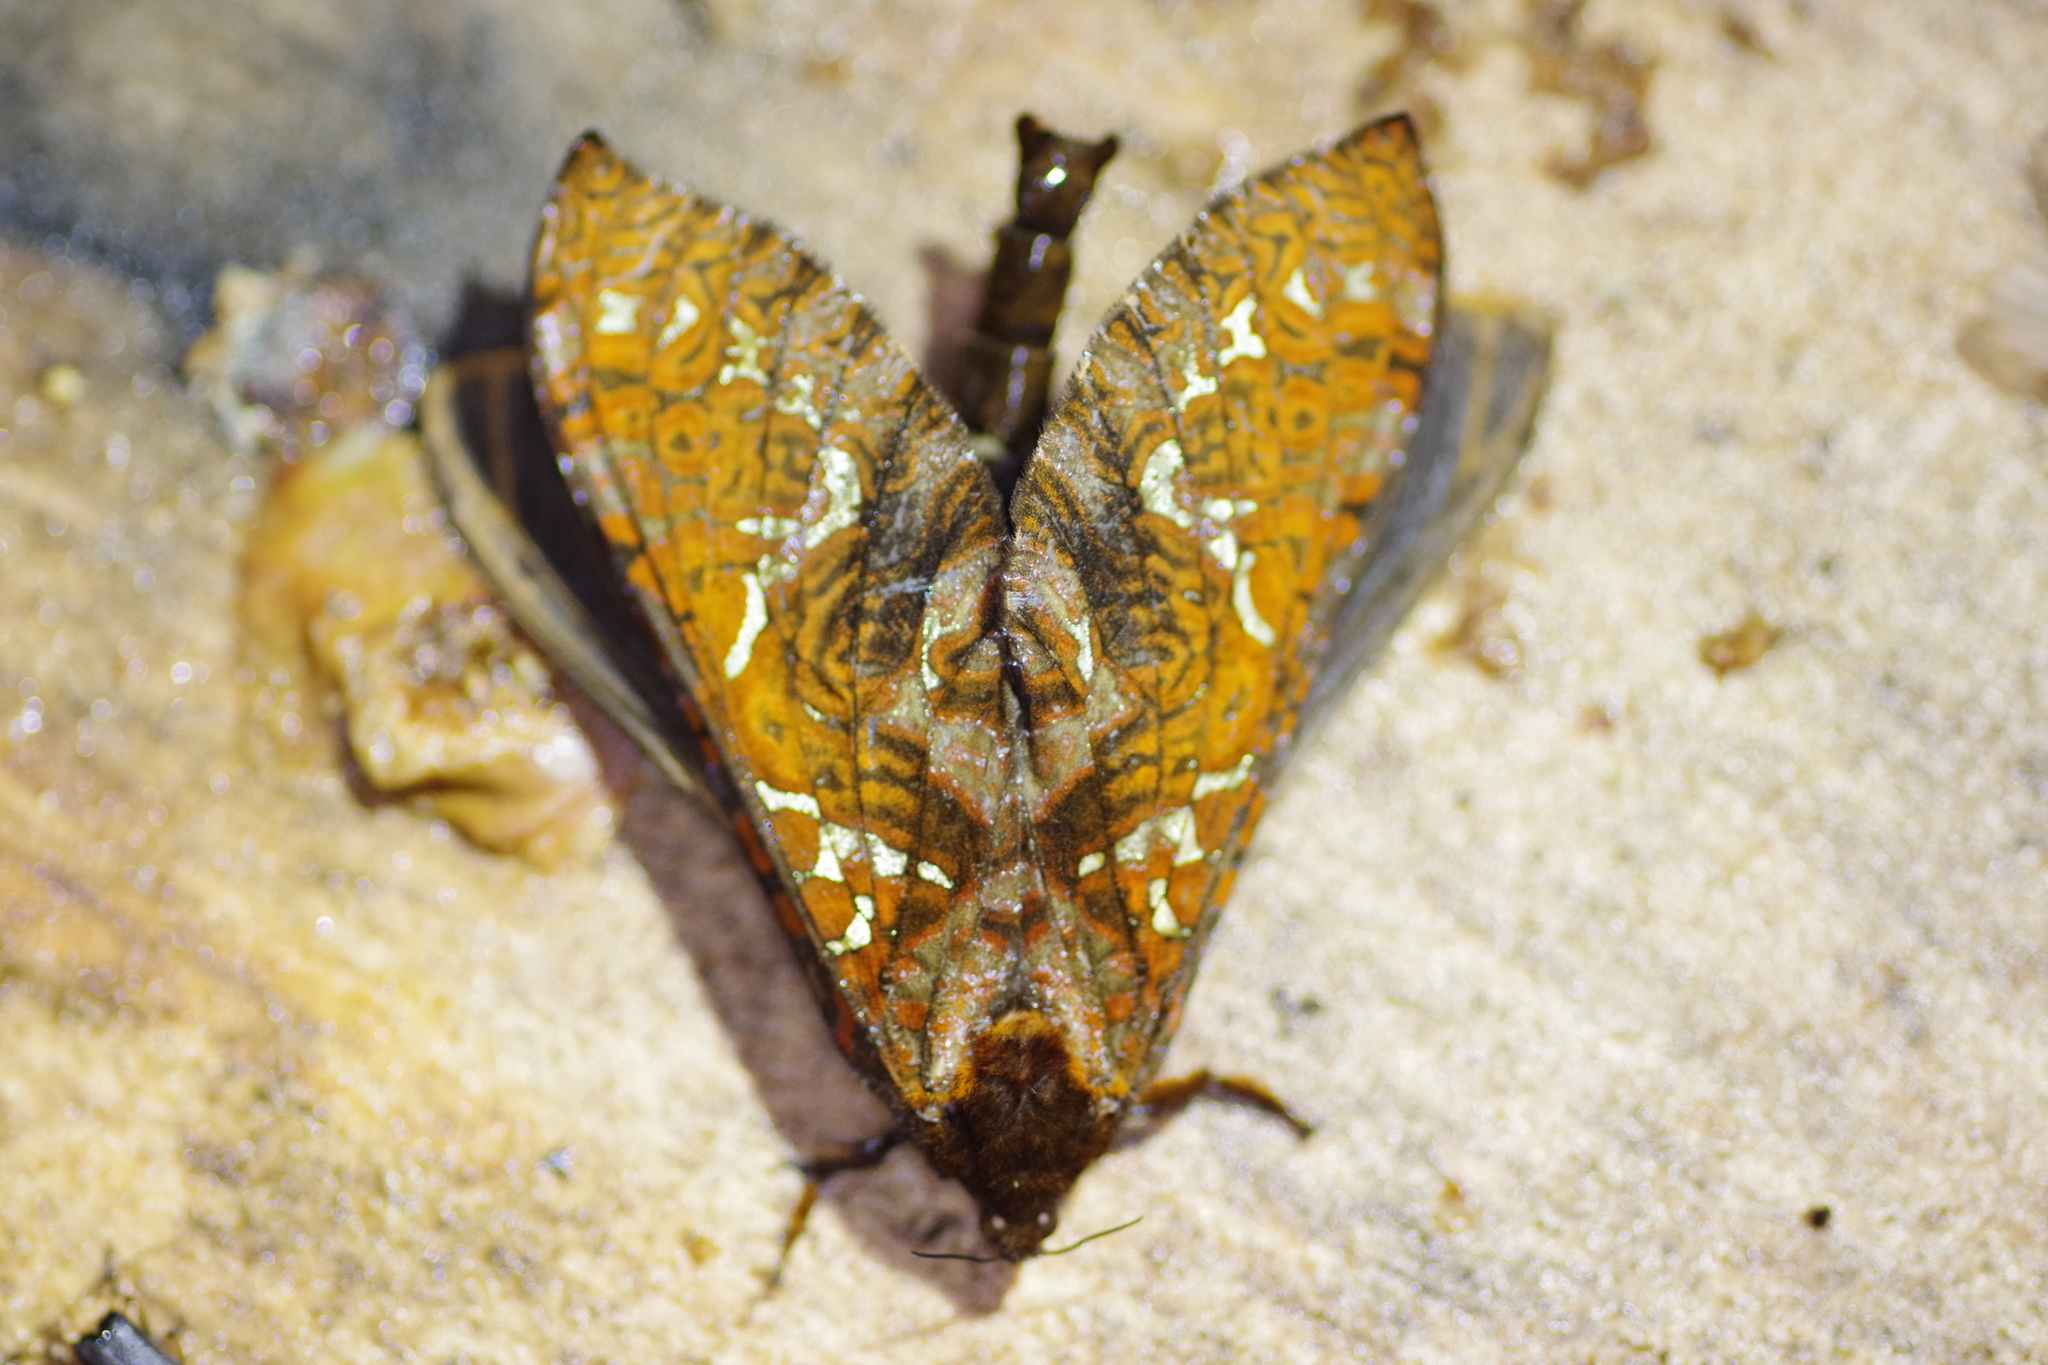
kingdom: Animalia
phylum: Arthropoda
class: Insecta
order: Lepidoptera
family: Hepialidae
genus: Phassus
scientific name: Phassus aurigenus
